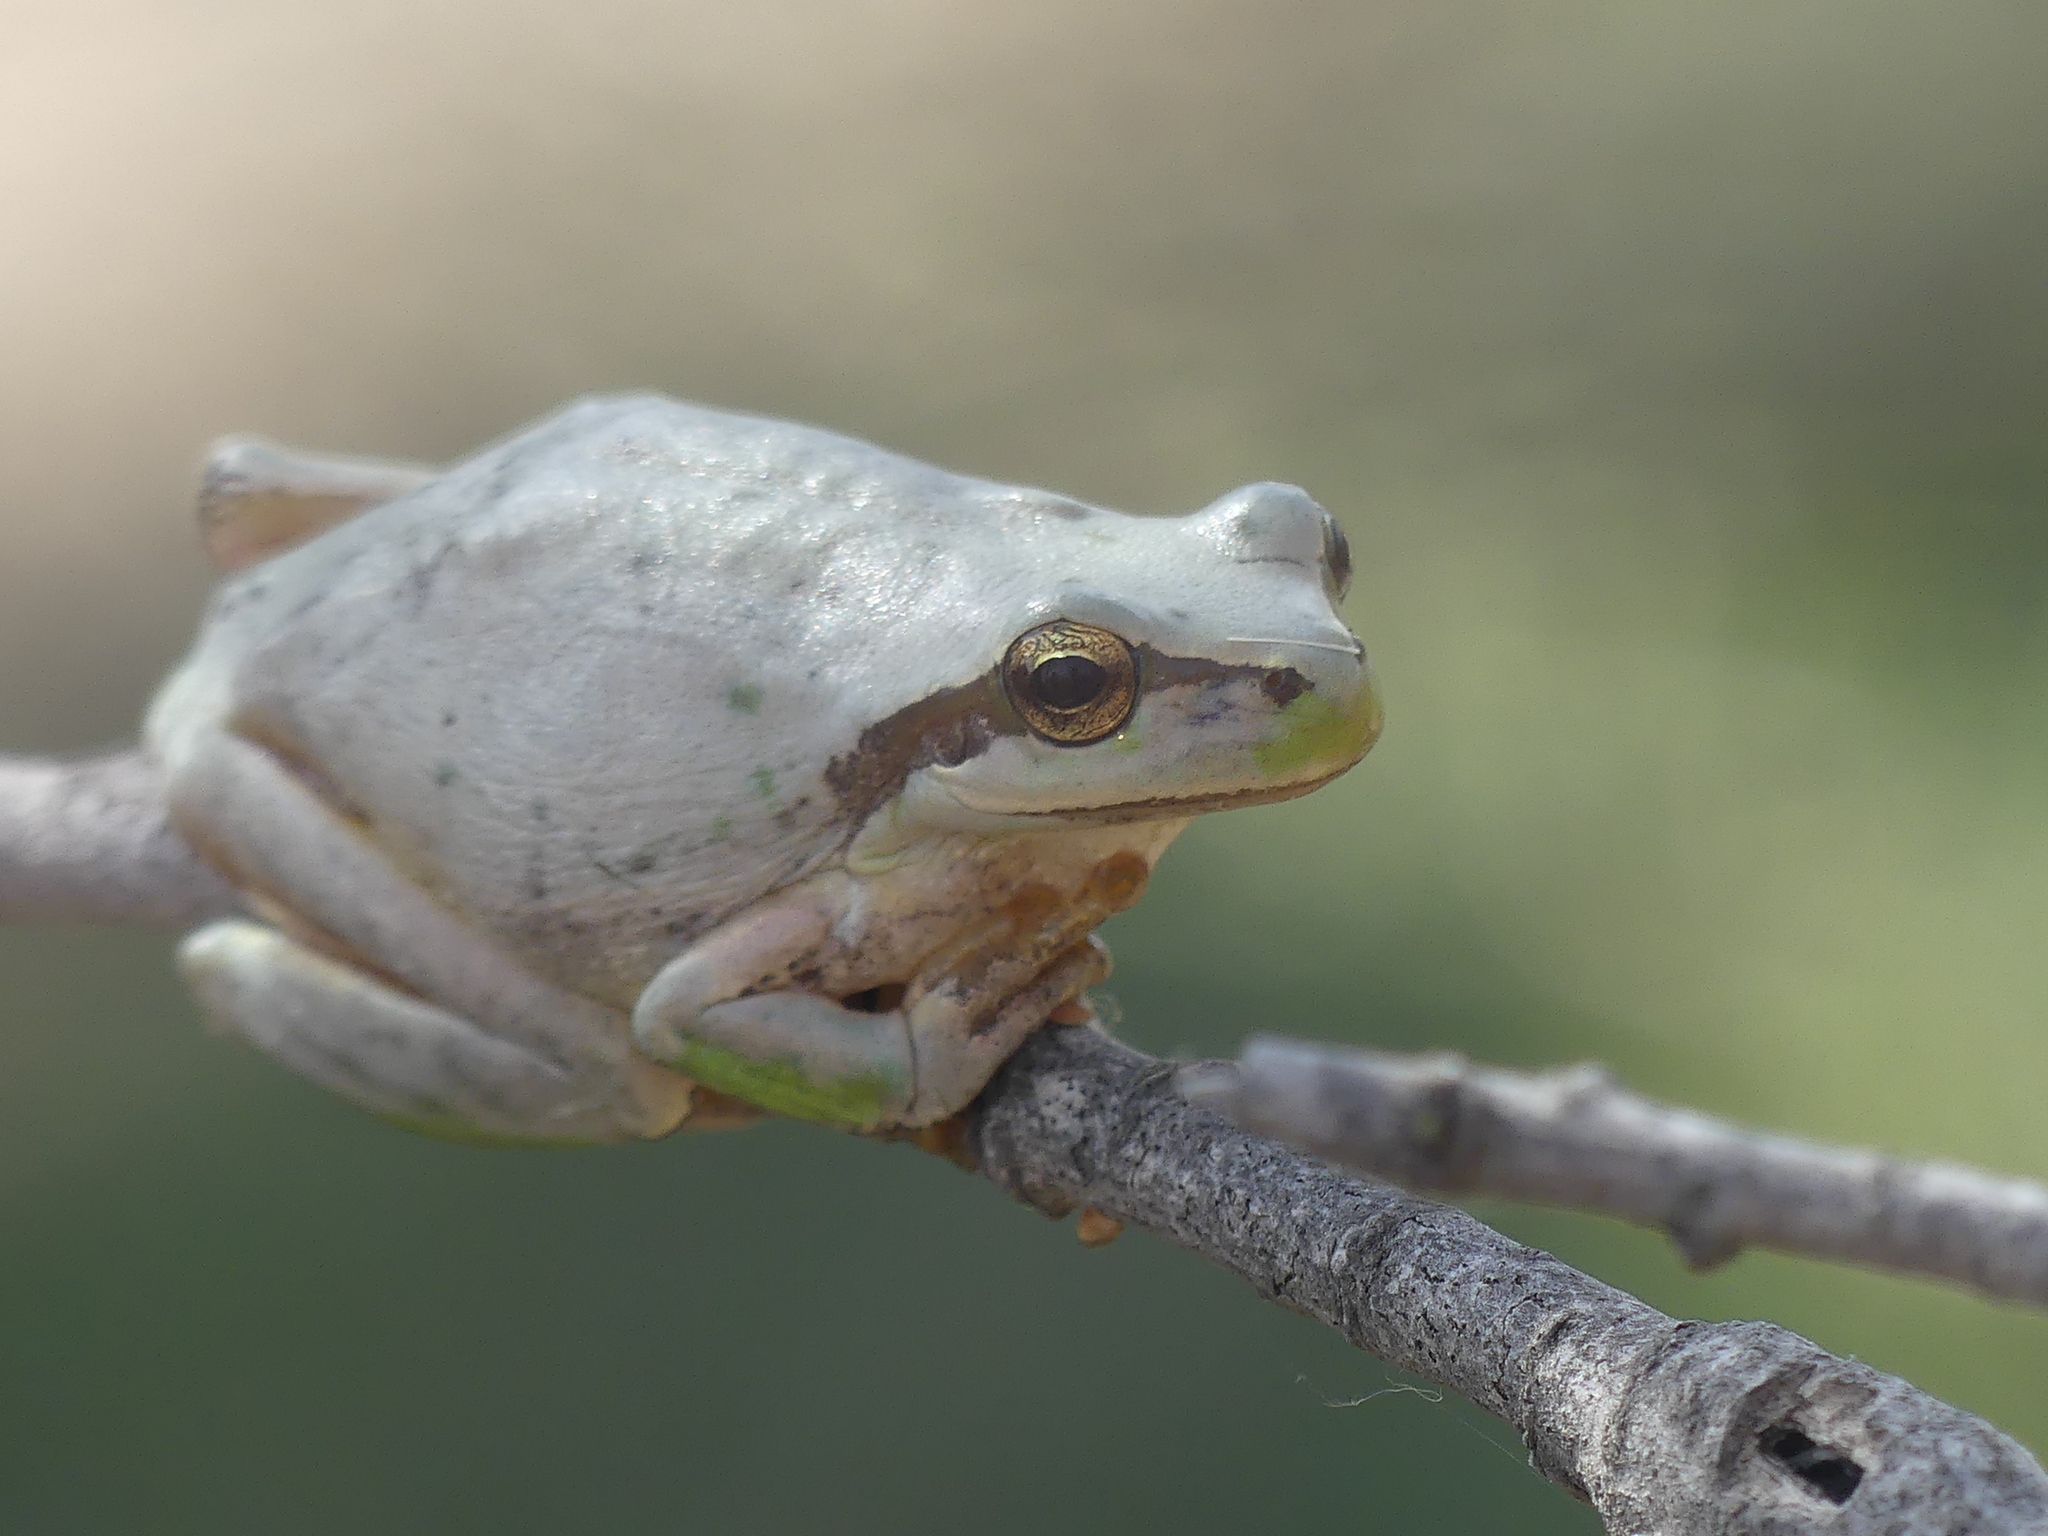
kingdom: Animalia
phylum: Chordata
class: Amphibia
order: Anura
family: Hylidae
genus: Hyla
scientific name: Hyla meridionalis
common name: Stripeless tree frog
